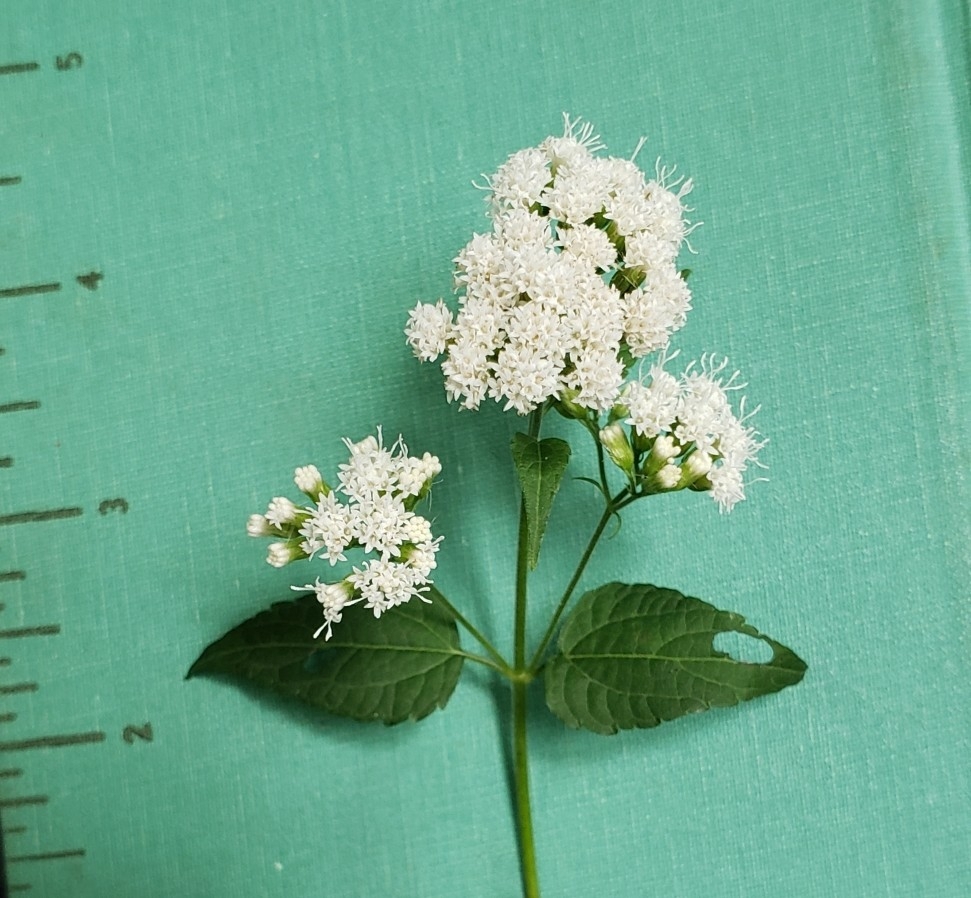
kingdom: Plantae
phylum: Tracheophyta
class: Magnoliopsida
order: Asterales
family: Asteraceae
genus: Ageratina
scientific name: Ageratina altissima
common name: White snakeroot
